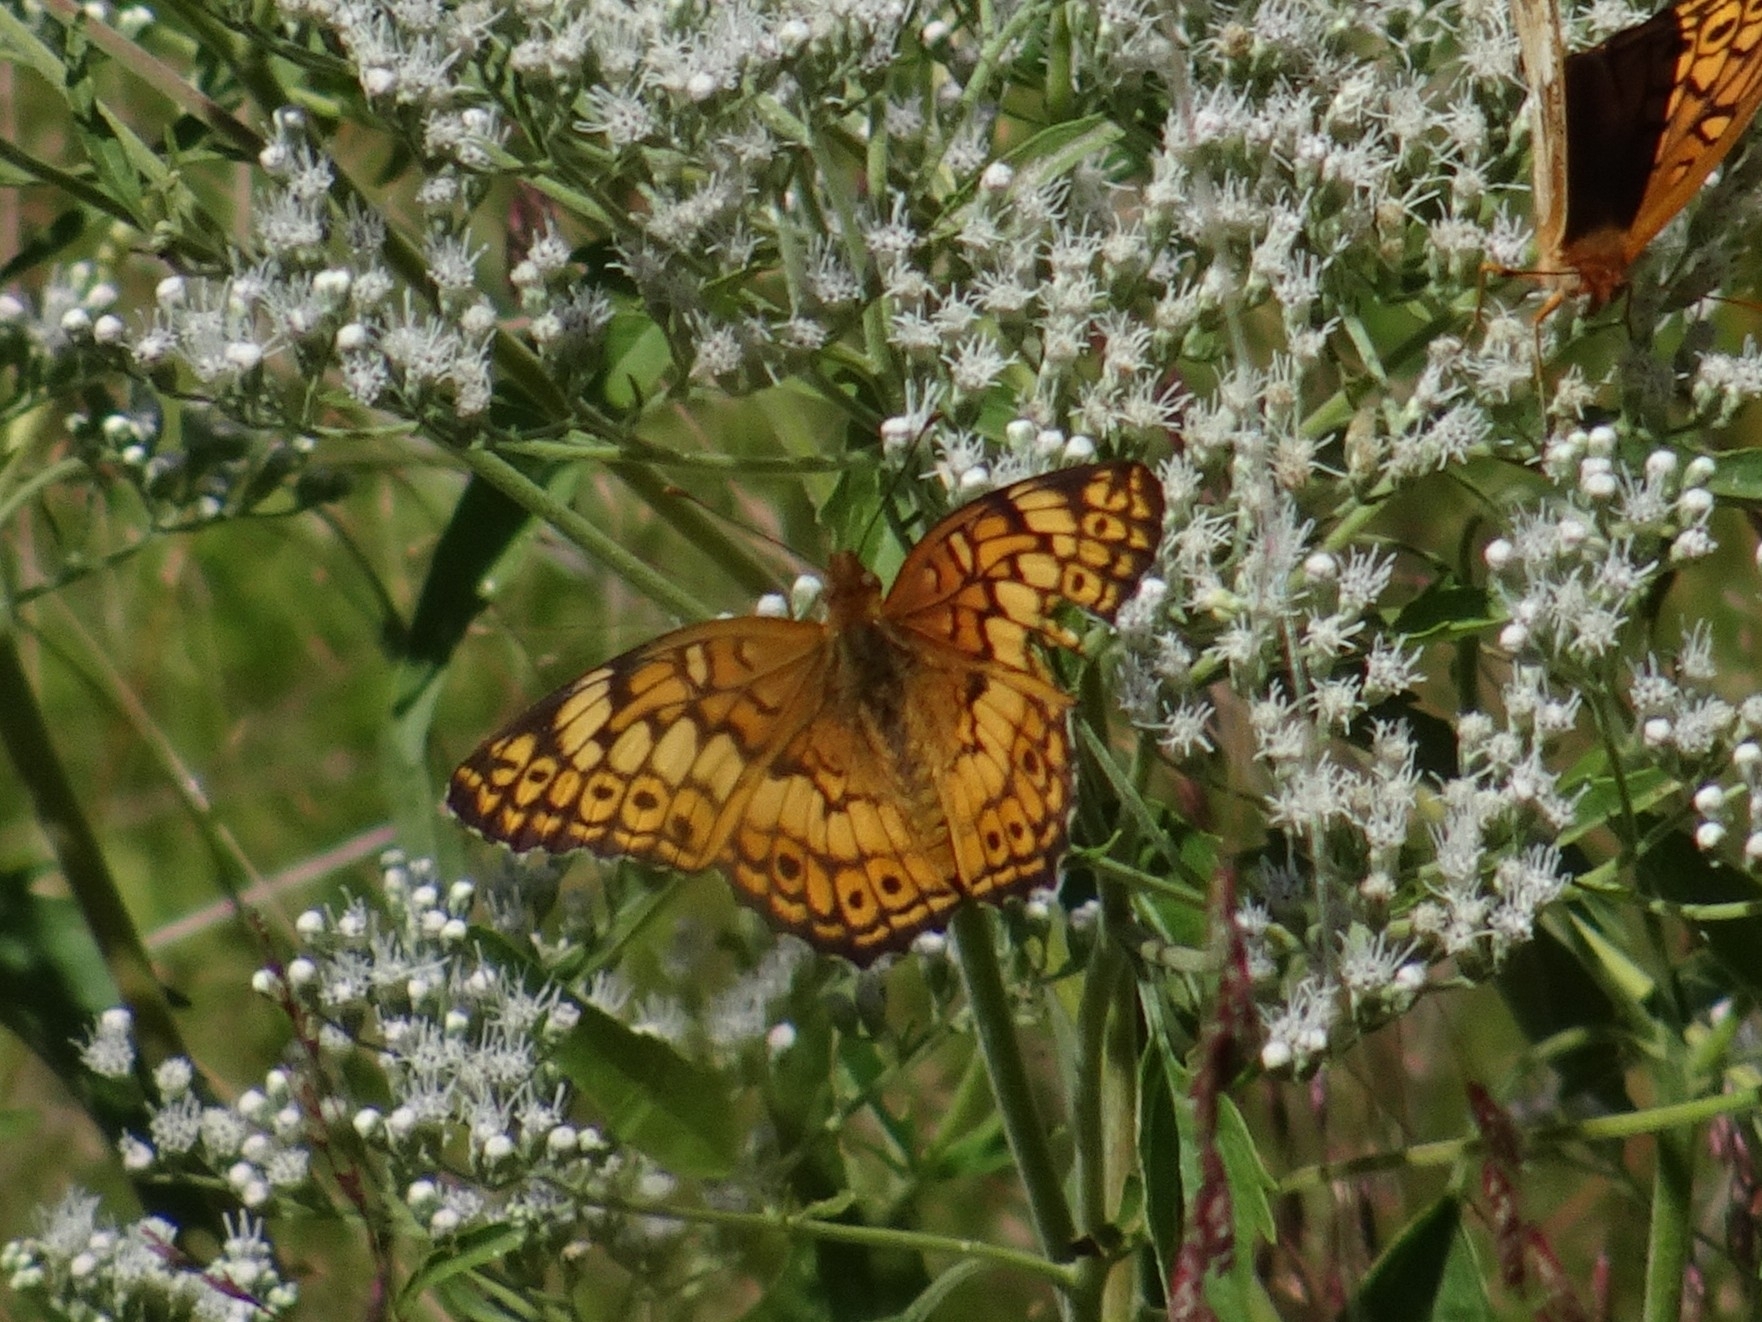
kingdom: Animalia
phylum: Arthropoda
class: Insecta
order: Lepidoptera
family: Nymphalidae
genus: Euptoieta
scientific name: Euptoieta claudia
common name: Variegated fritillary
